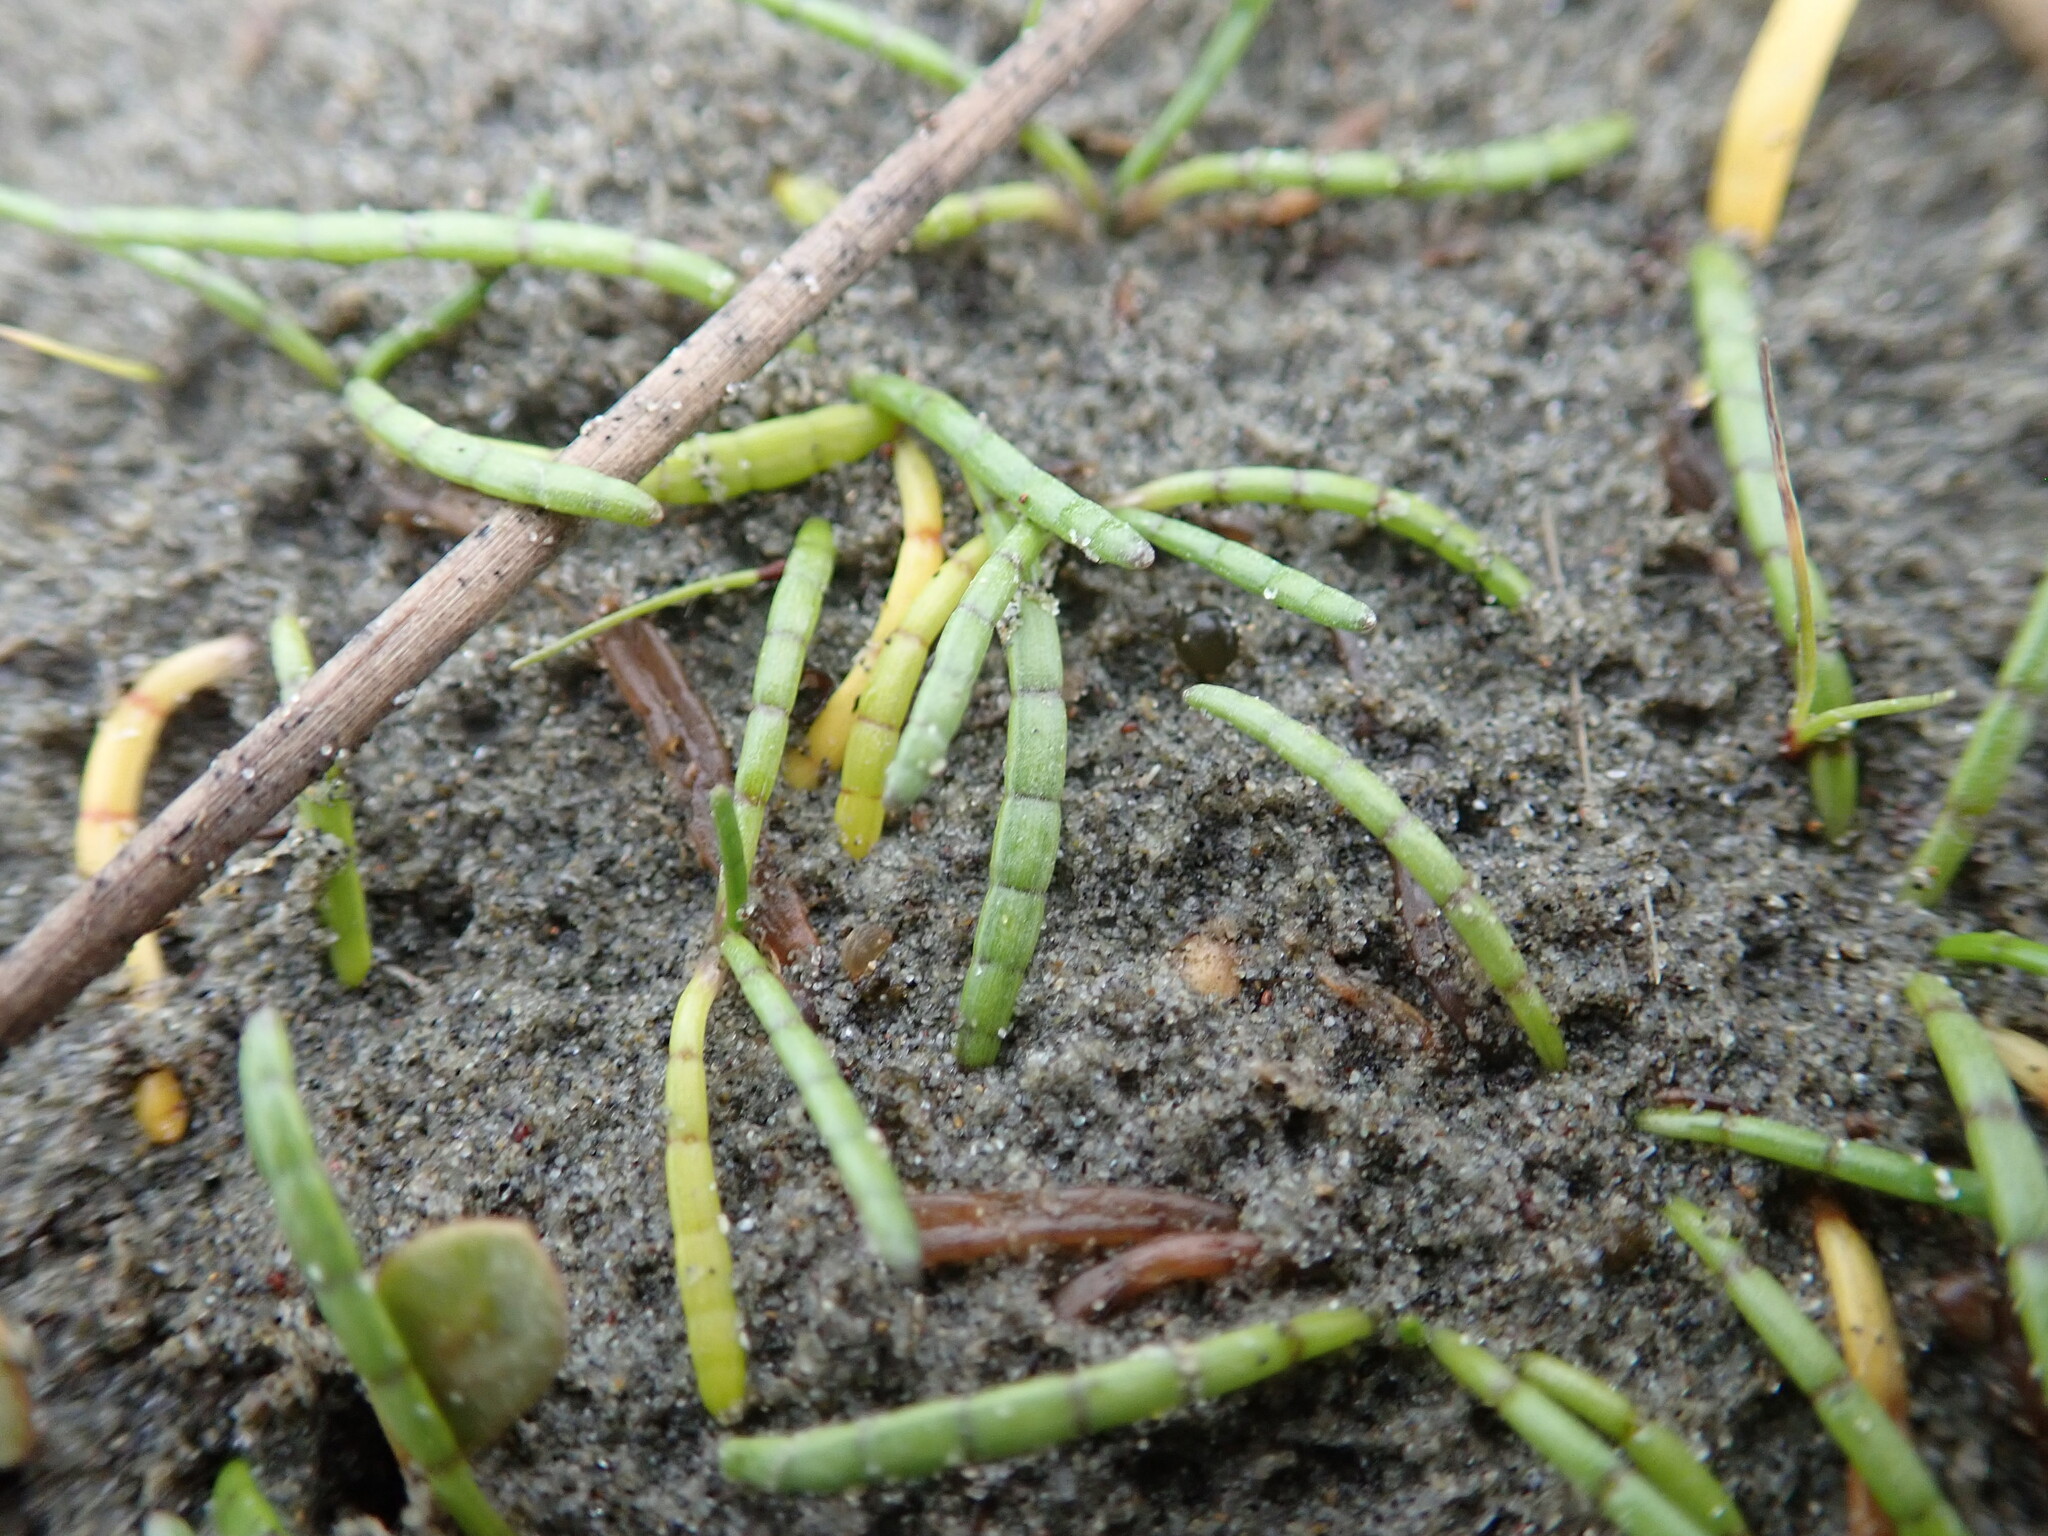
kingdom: Plantae
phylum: Tracheophyta
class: Magnoliopsida
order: Apiales
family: Apiaceae
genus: Lilaeopsis
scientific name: Lilaeopsis novae-zelandiae
